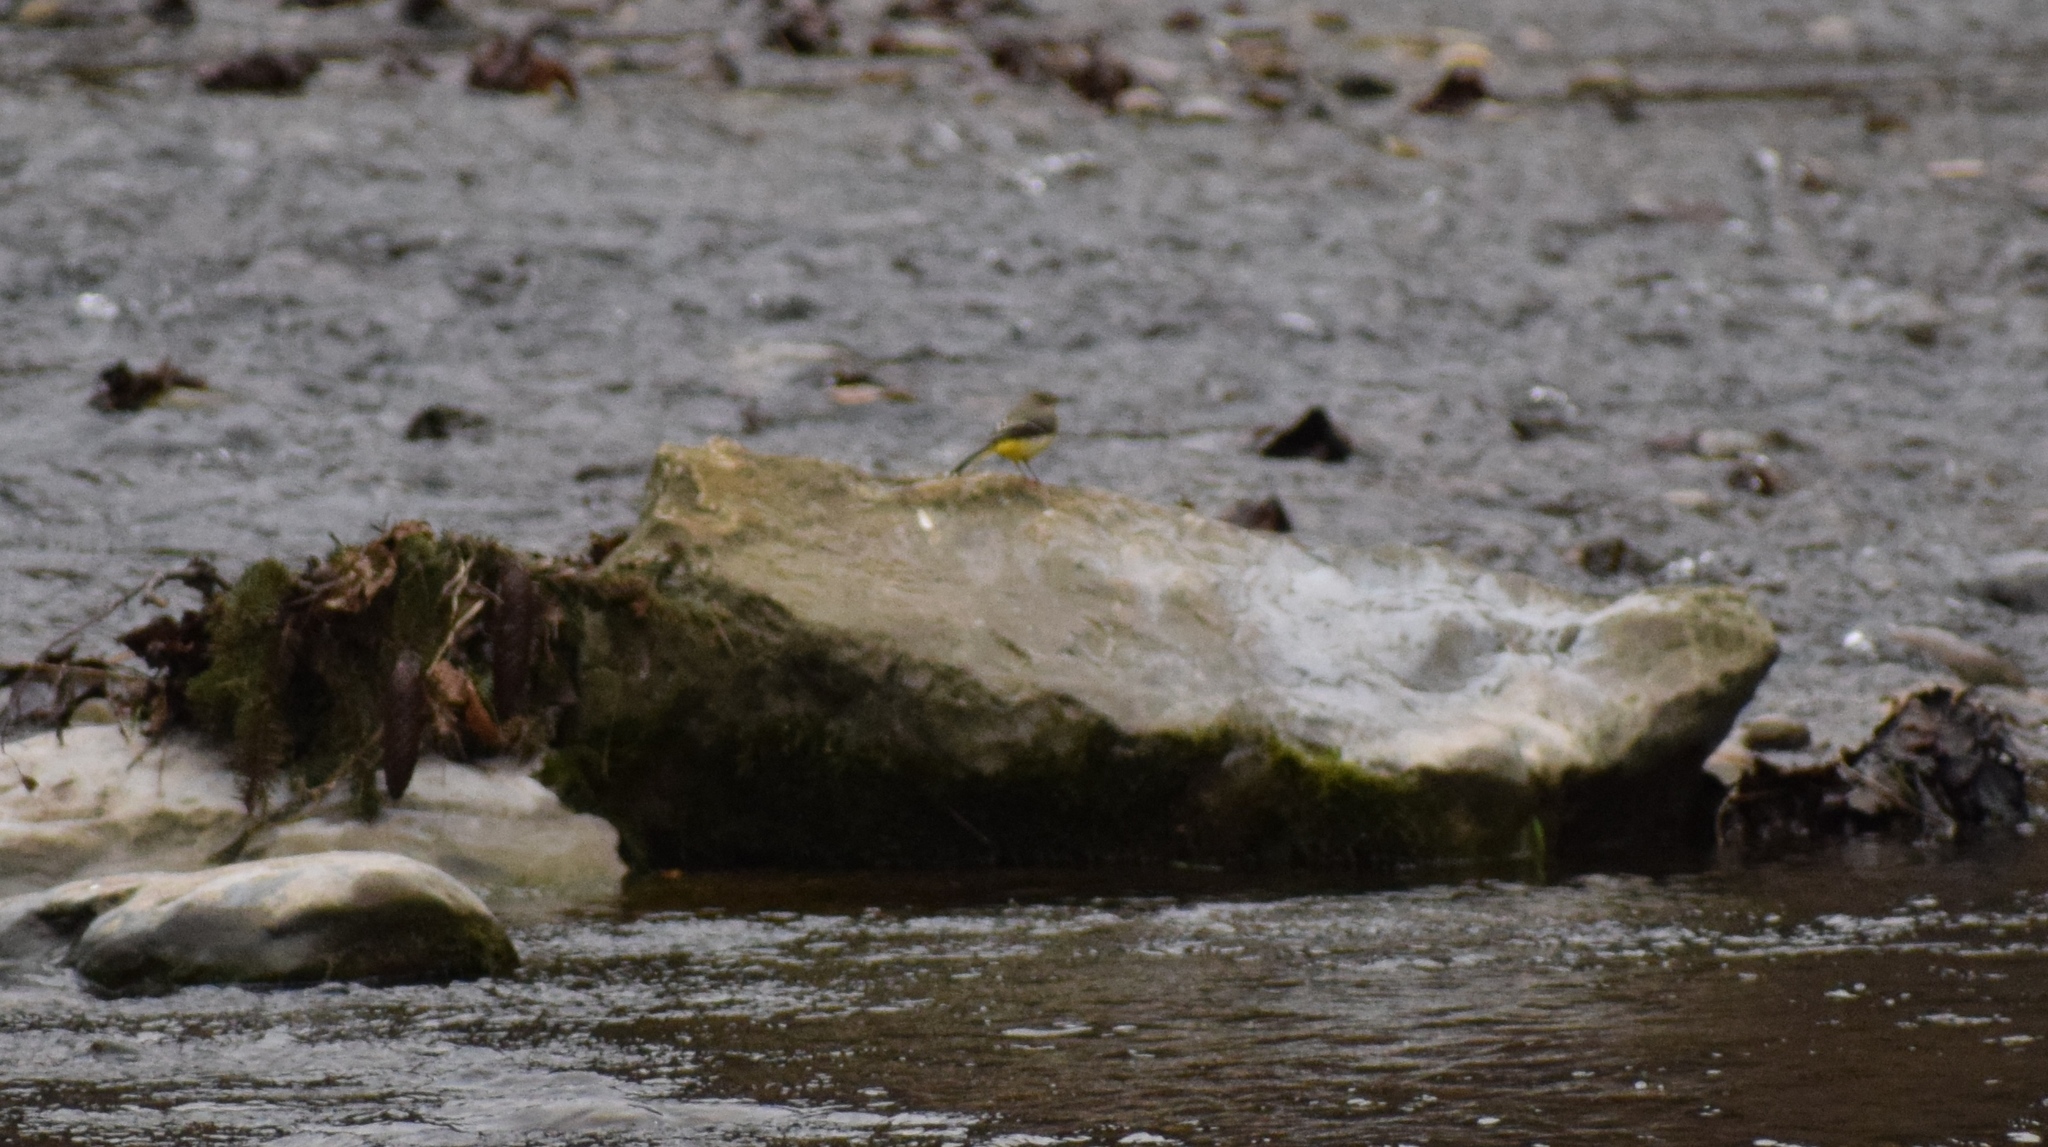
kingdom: Animalia
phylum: Chordata
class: Aves
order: Passeriformes
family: Motacillidae
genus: Motacilla
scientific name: Motacilla cinerea
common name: Grey wagtail
